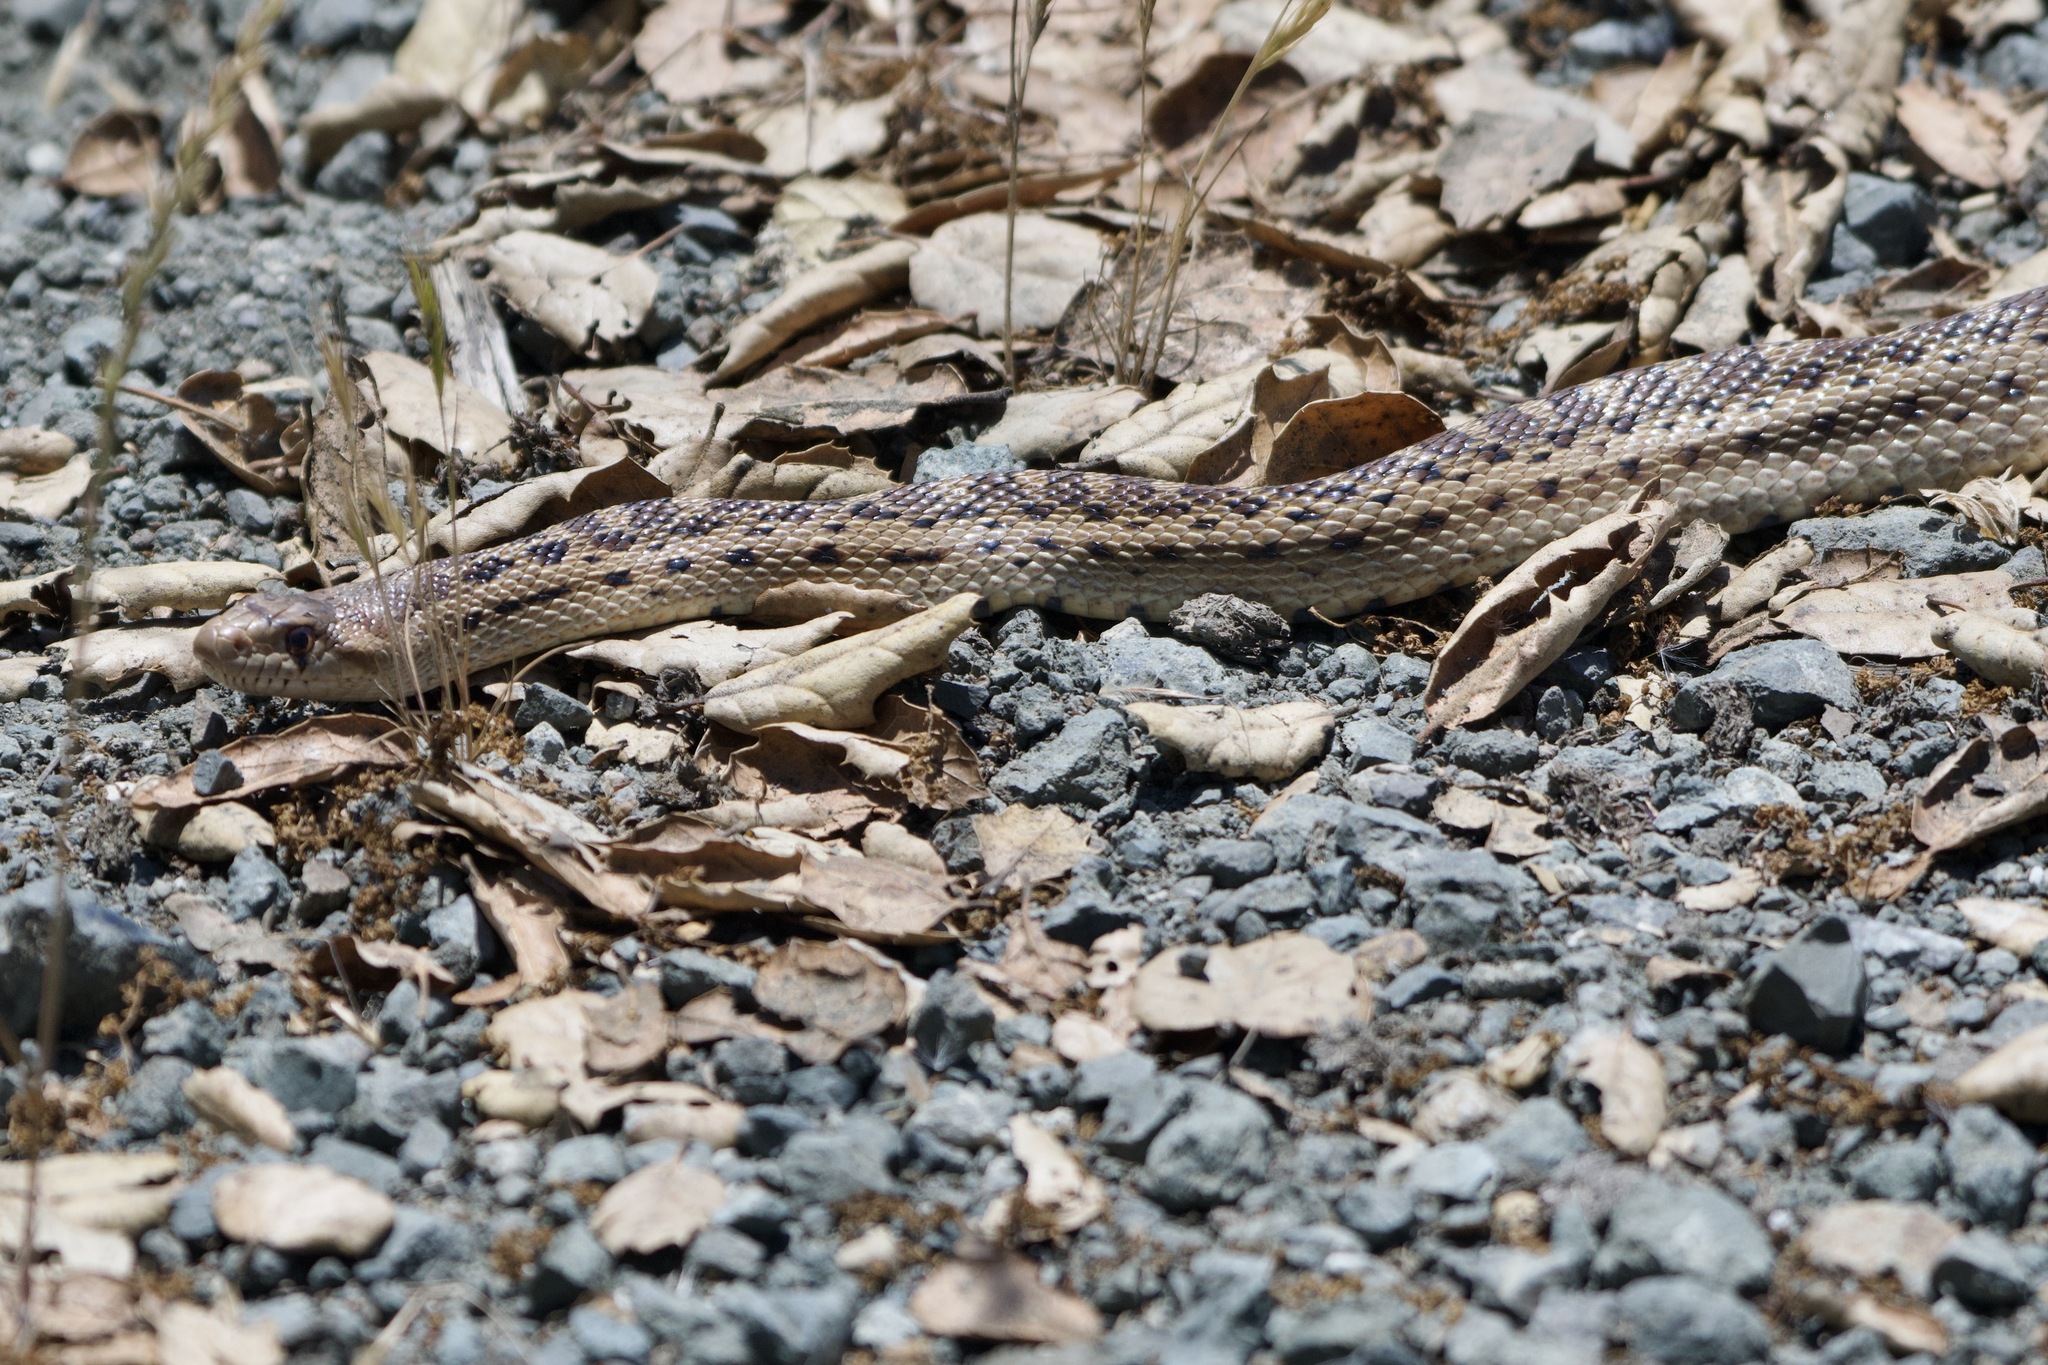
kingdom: Animalia
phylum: Chordata
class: Squamata
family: Colubridae
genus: Pituophis
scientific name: Pituophis catenifer
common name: Gopher snake
